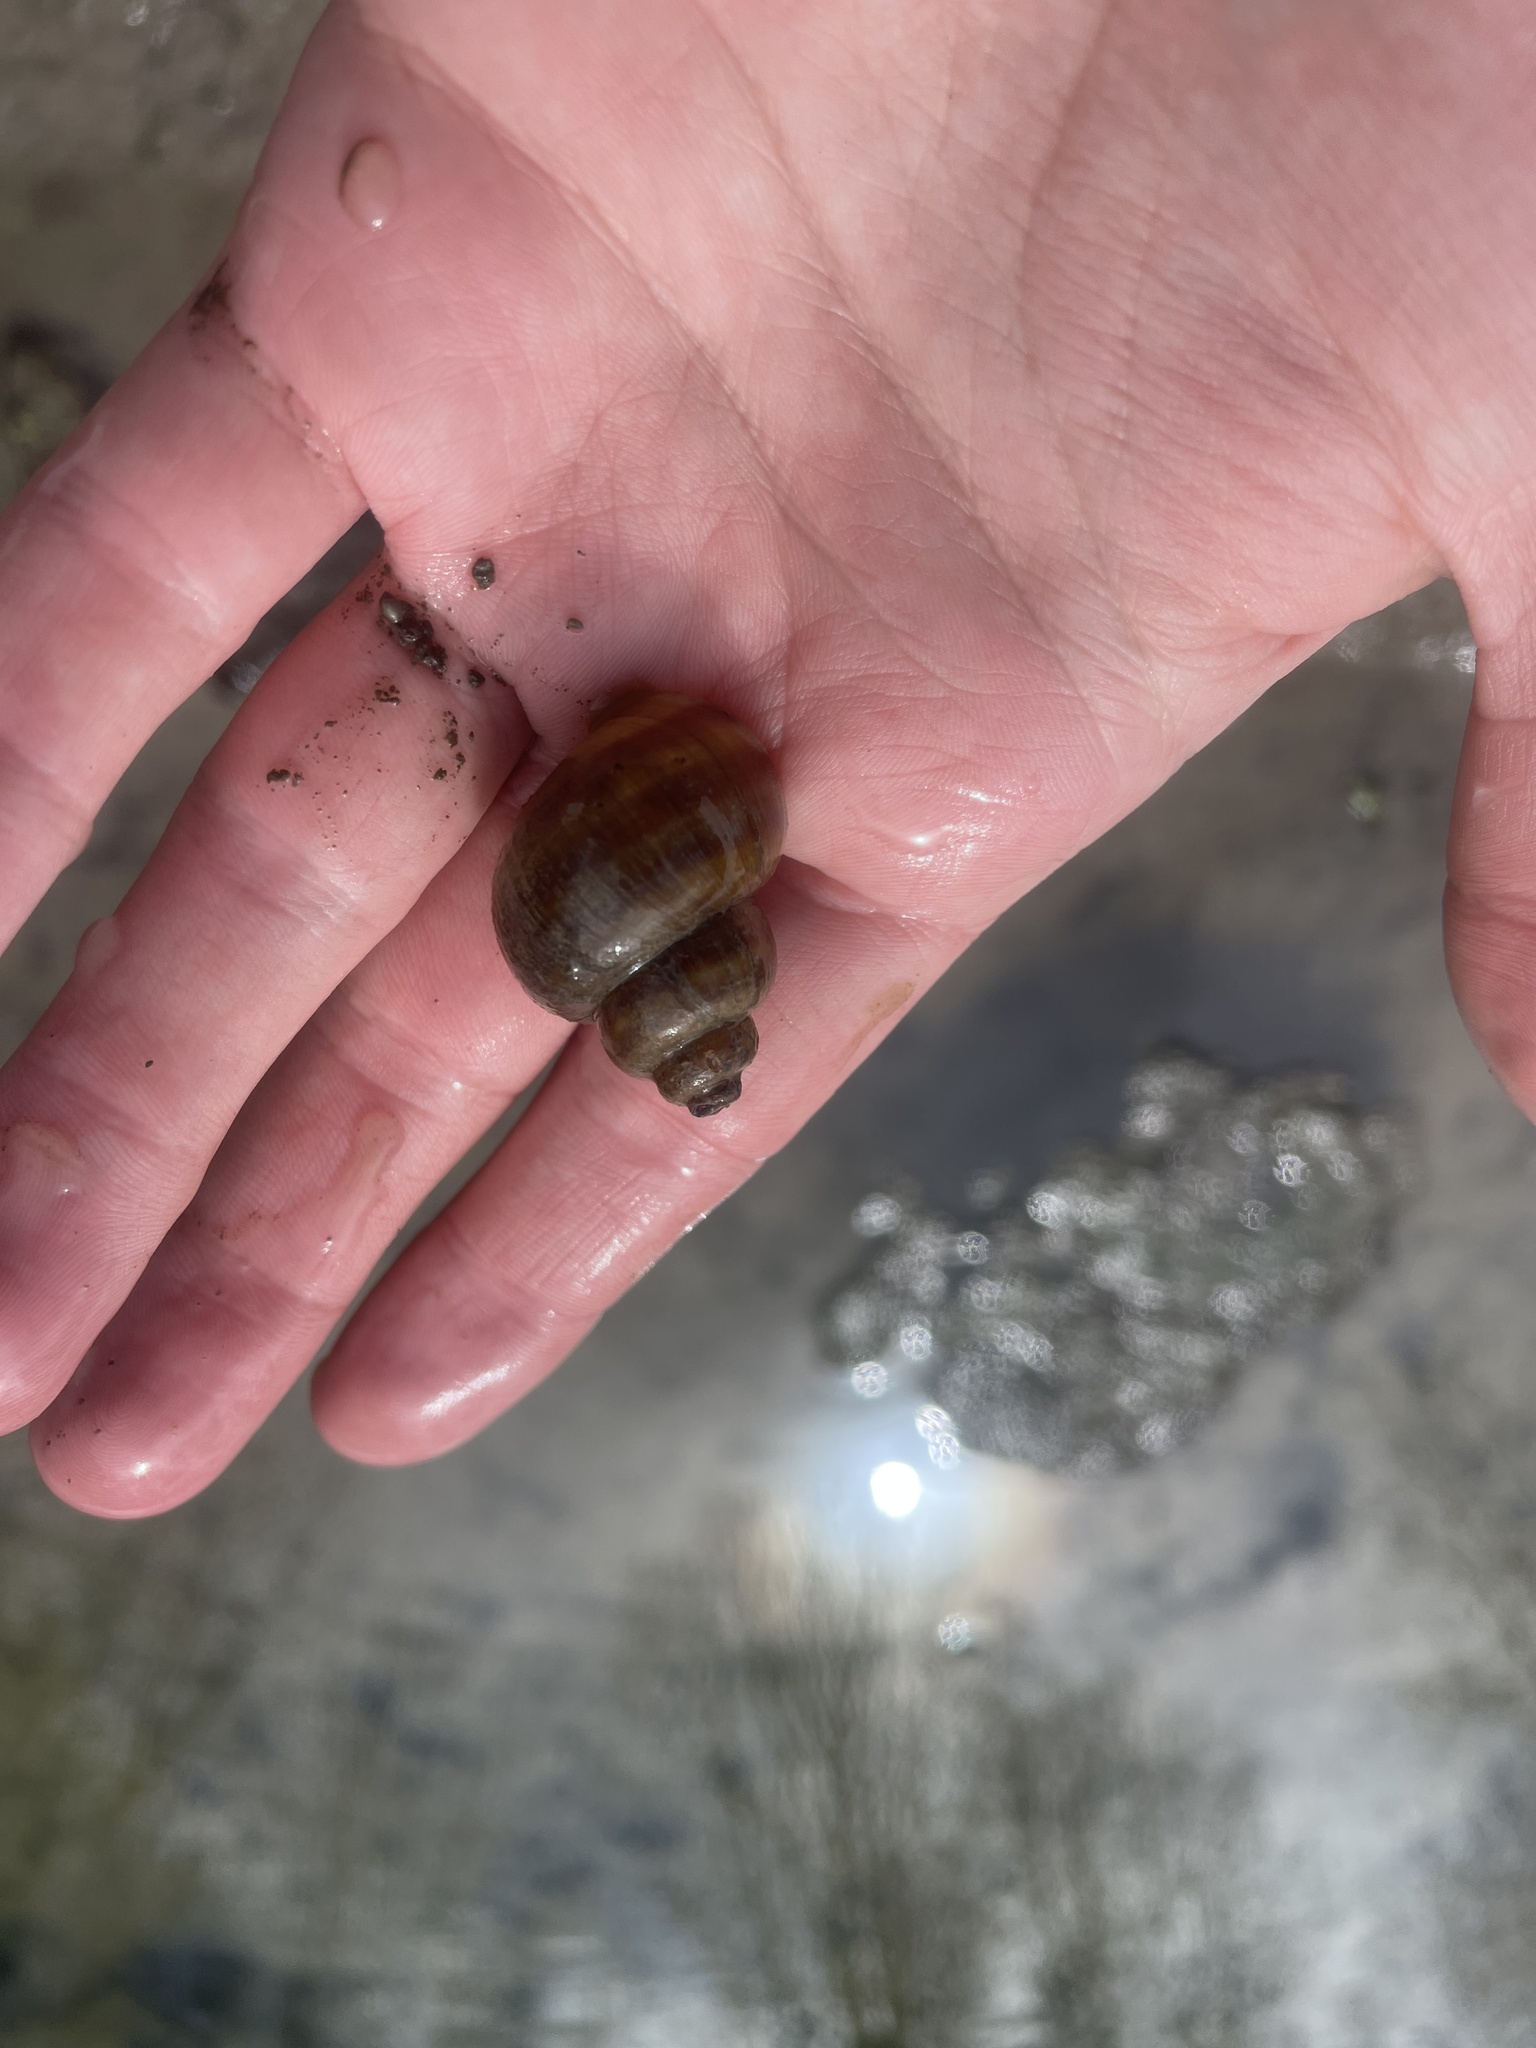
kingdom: Animalia
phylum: Mollusca
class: Gastropoda
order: Architaenioglossa
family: Viviparidae
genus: Callinina
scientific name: Callinina georgiana
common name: Banded mystery snail
